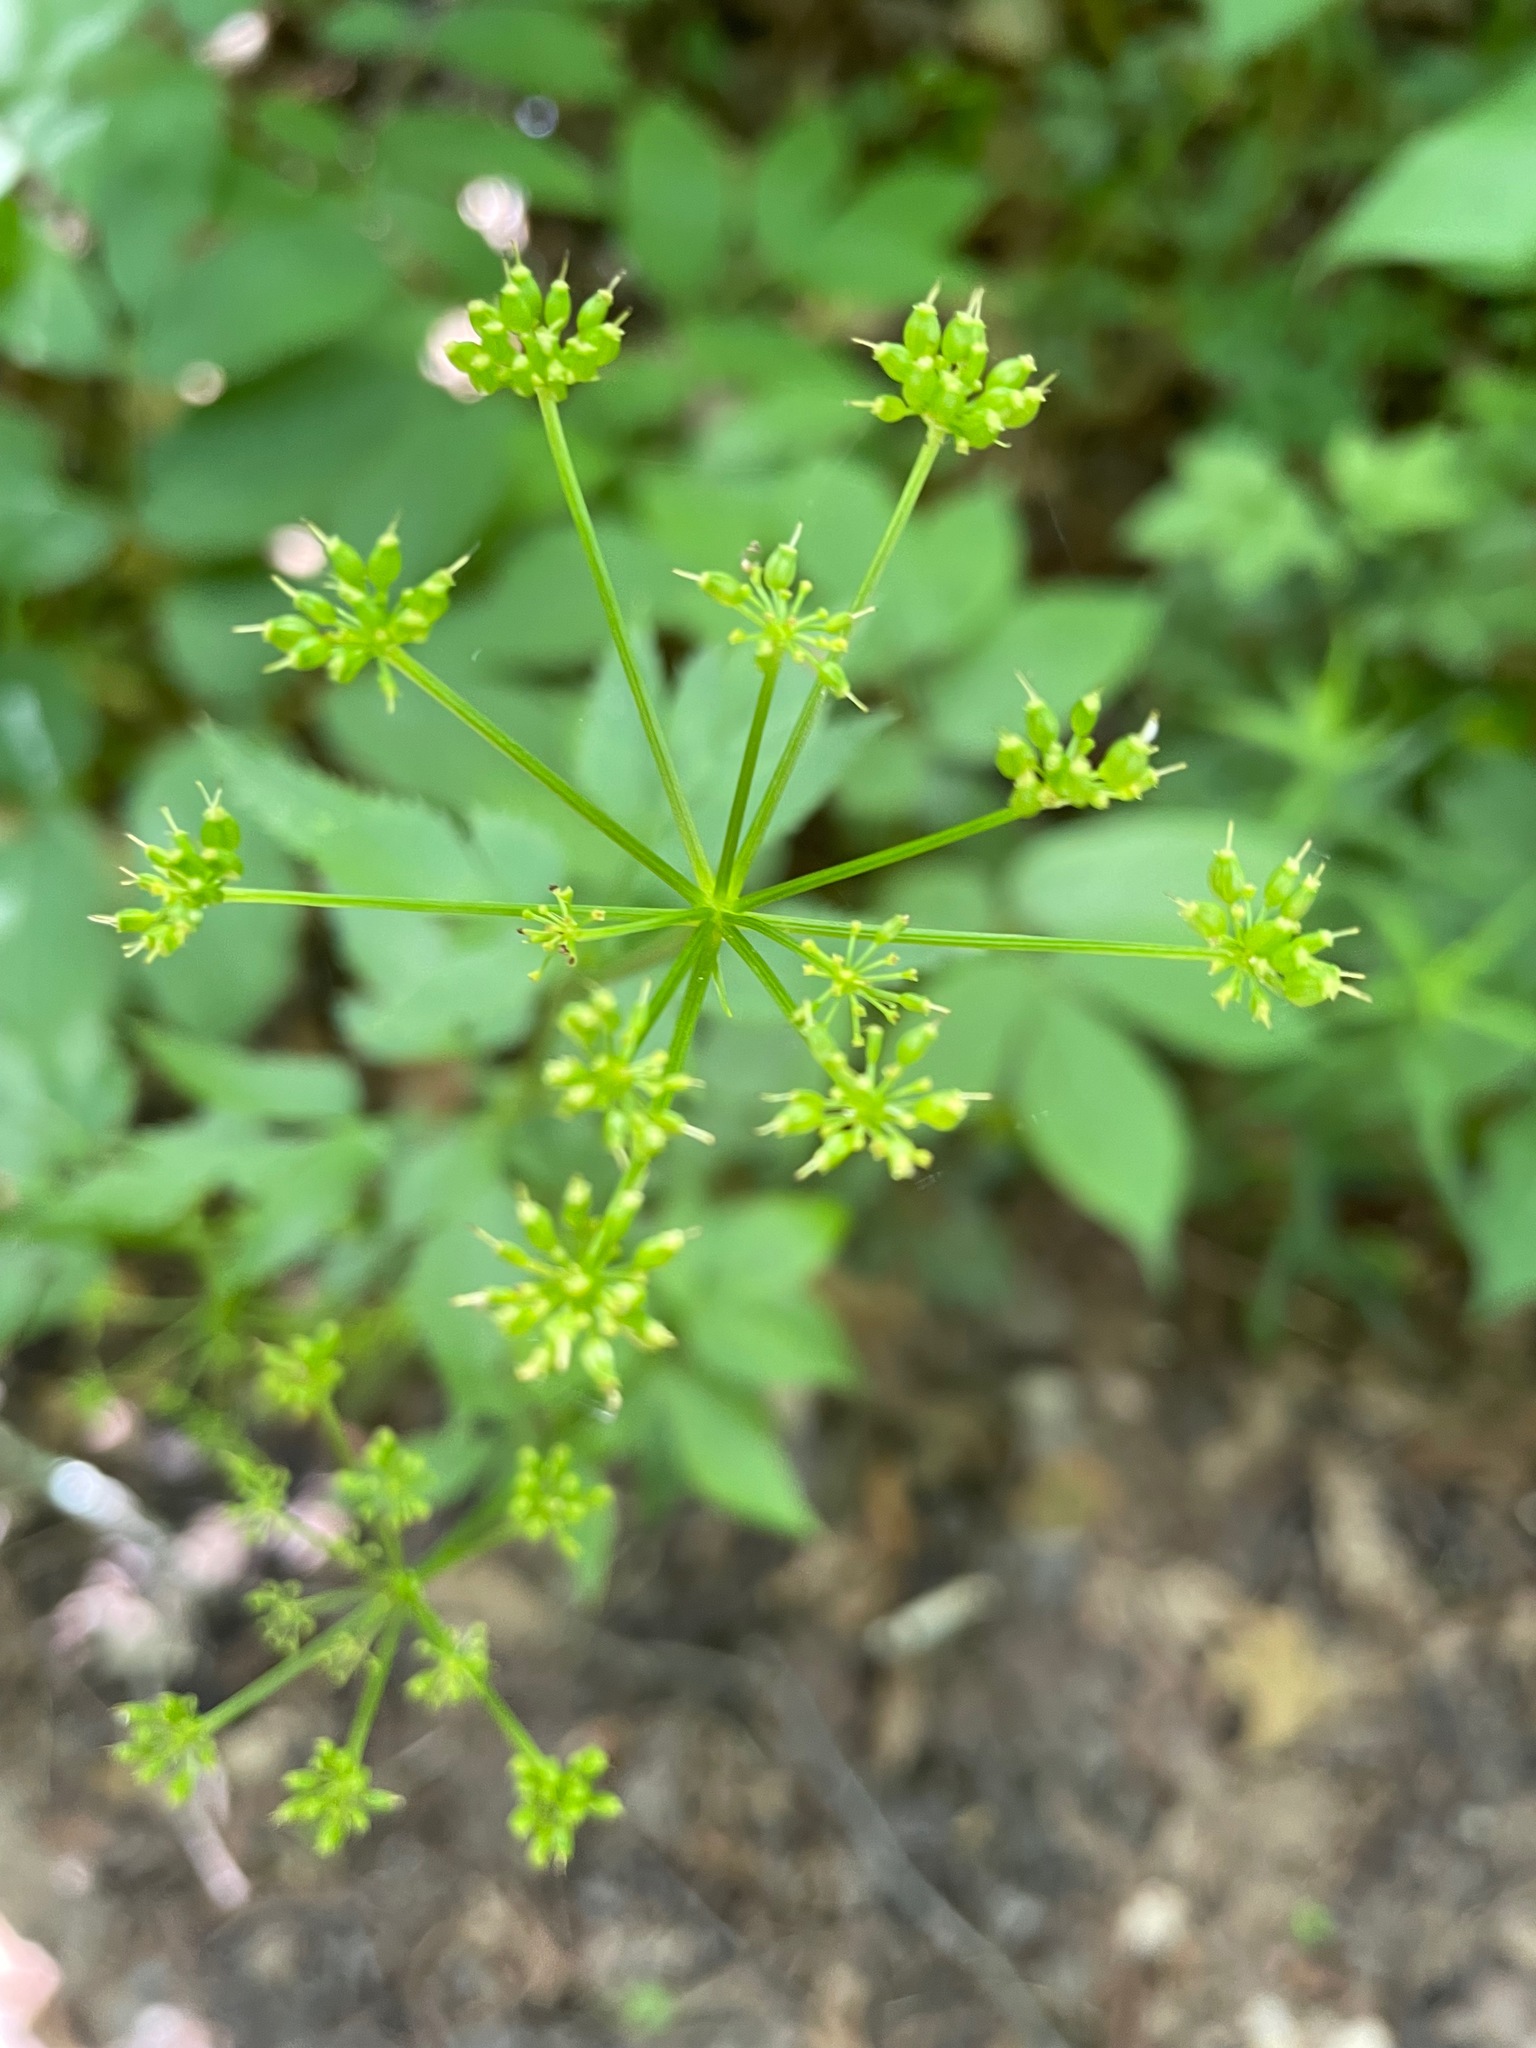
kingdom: Plantae
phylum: Tracheophyta
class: Magnoliopsida
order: Apiales
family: Apiaceae
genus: Zizia
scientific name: Zizia aurea
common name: Golden alexanders
